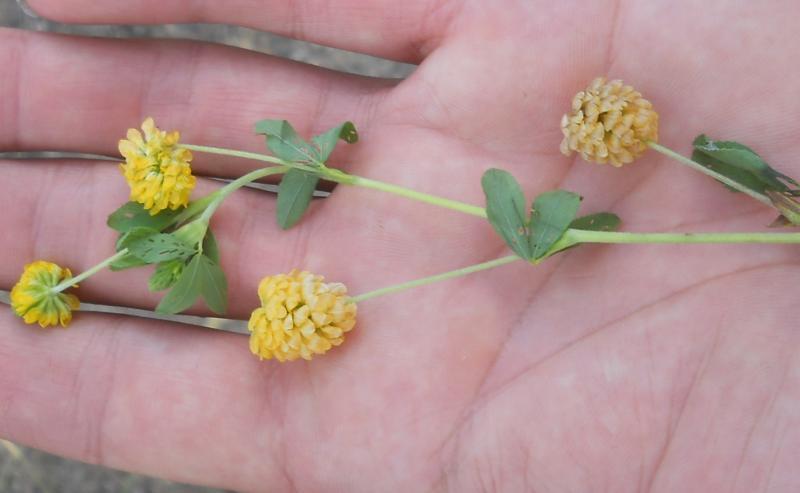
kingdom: Plantae
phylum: Tracheophyta
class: Magnoliopsida
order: Fabales
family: Fabaceae
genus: Trifolium
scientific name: Trifolium aureum
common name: Golden clover
